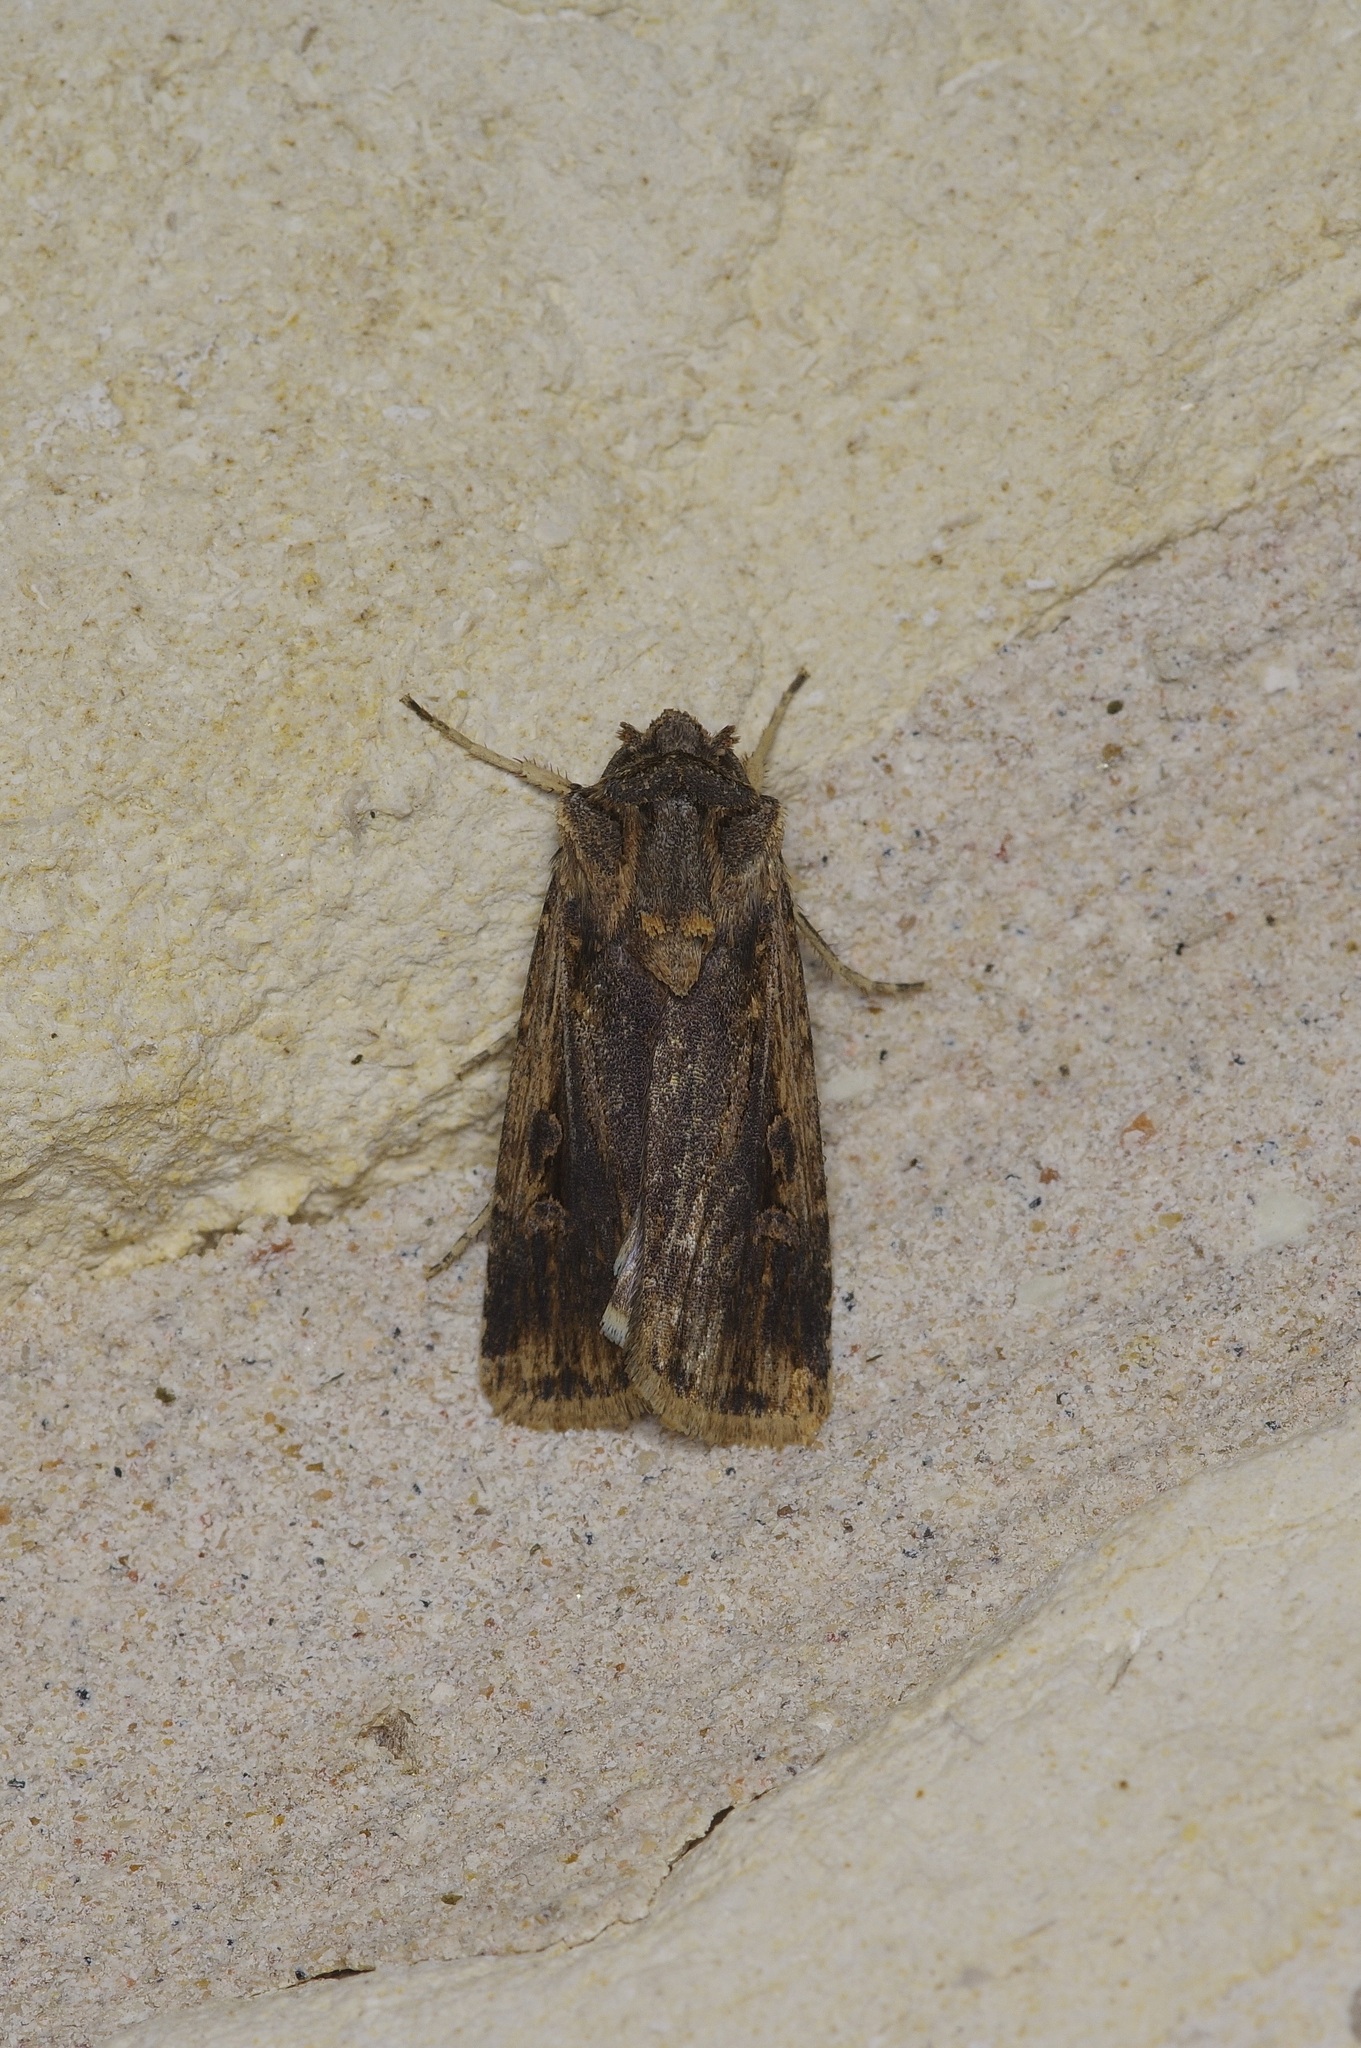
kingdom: Animalia
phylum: Arthropoda
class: Insecta
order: Lepidoptera
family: Noctuidae
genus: Feltia
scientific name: Feltia subterranea
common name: Granulate cutworm
